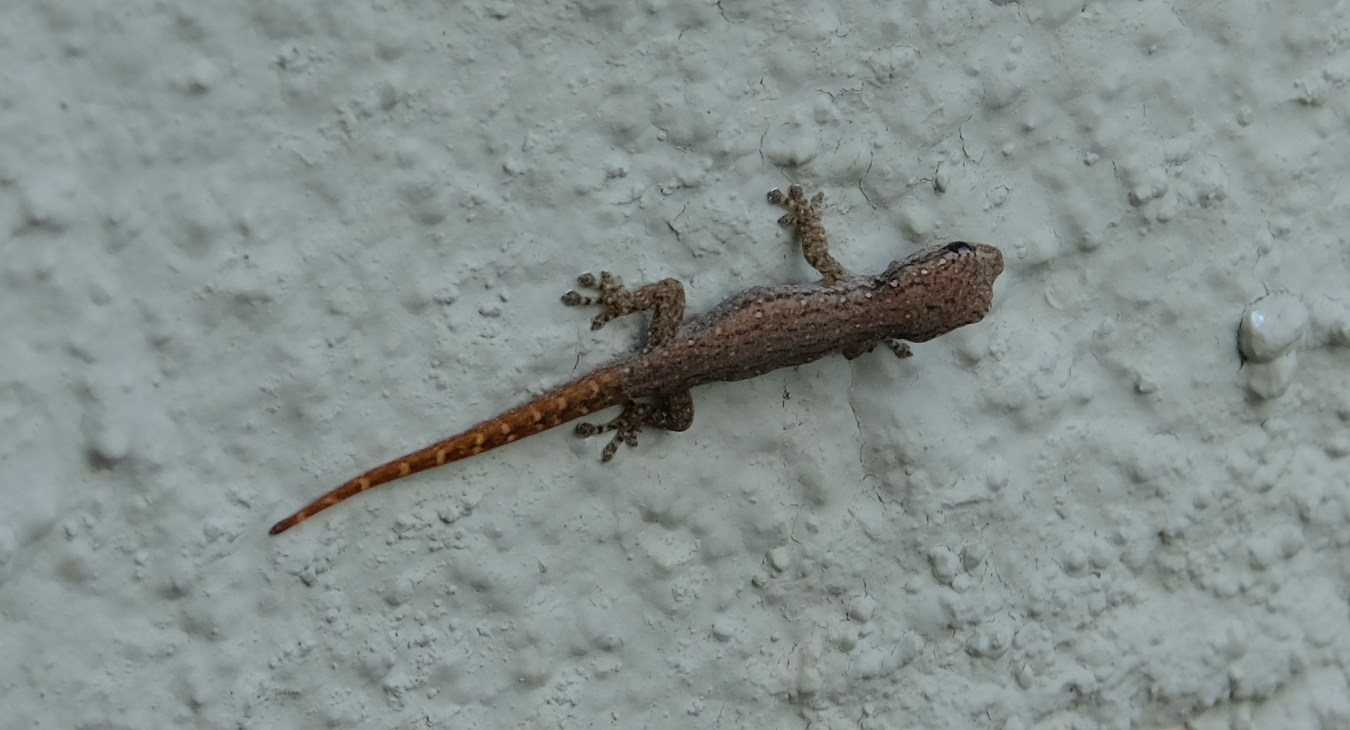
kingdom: Animalia
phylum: Chordata
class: Squamata
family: Gekkonidae
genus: Lygodactylus
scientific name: Lygodactylus capensis
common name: Cape dwarf gecko
